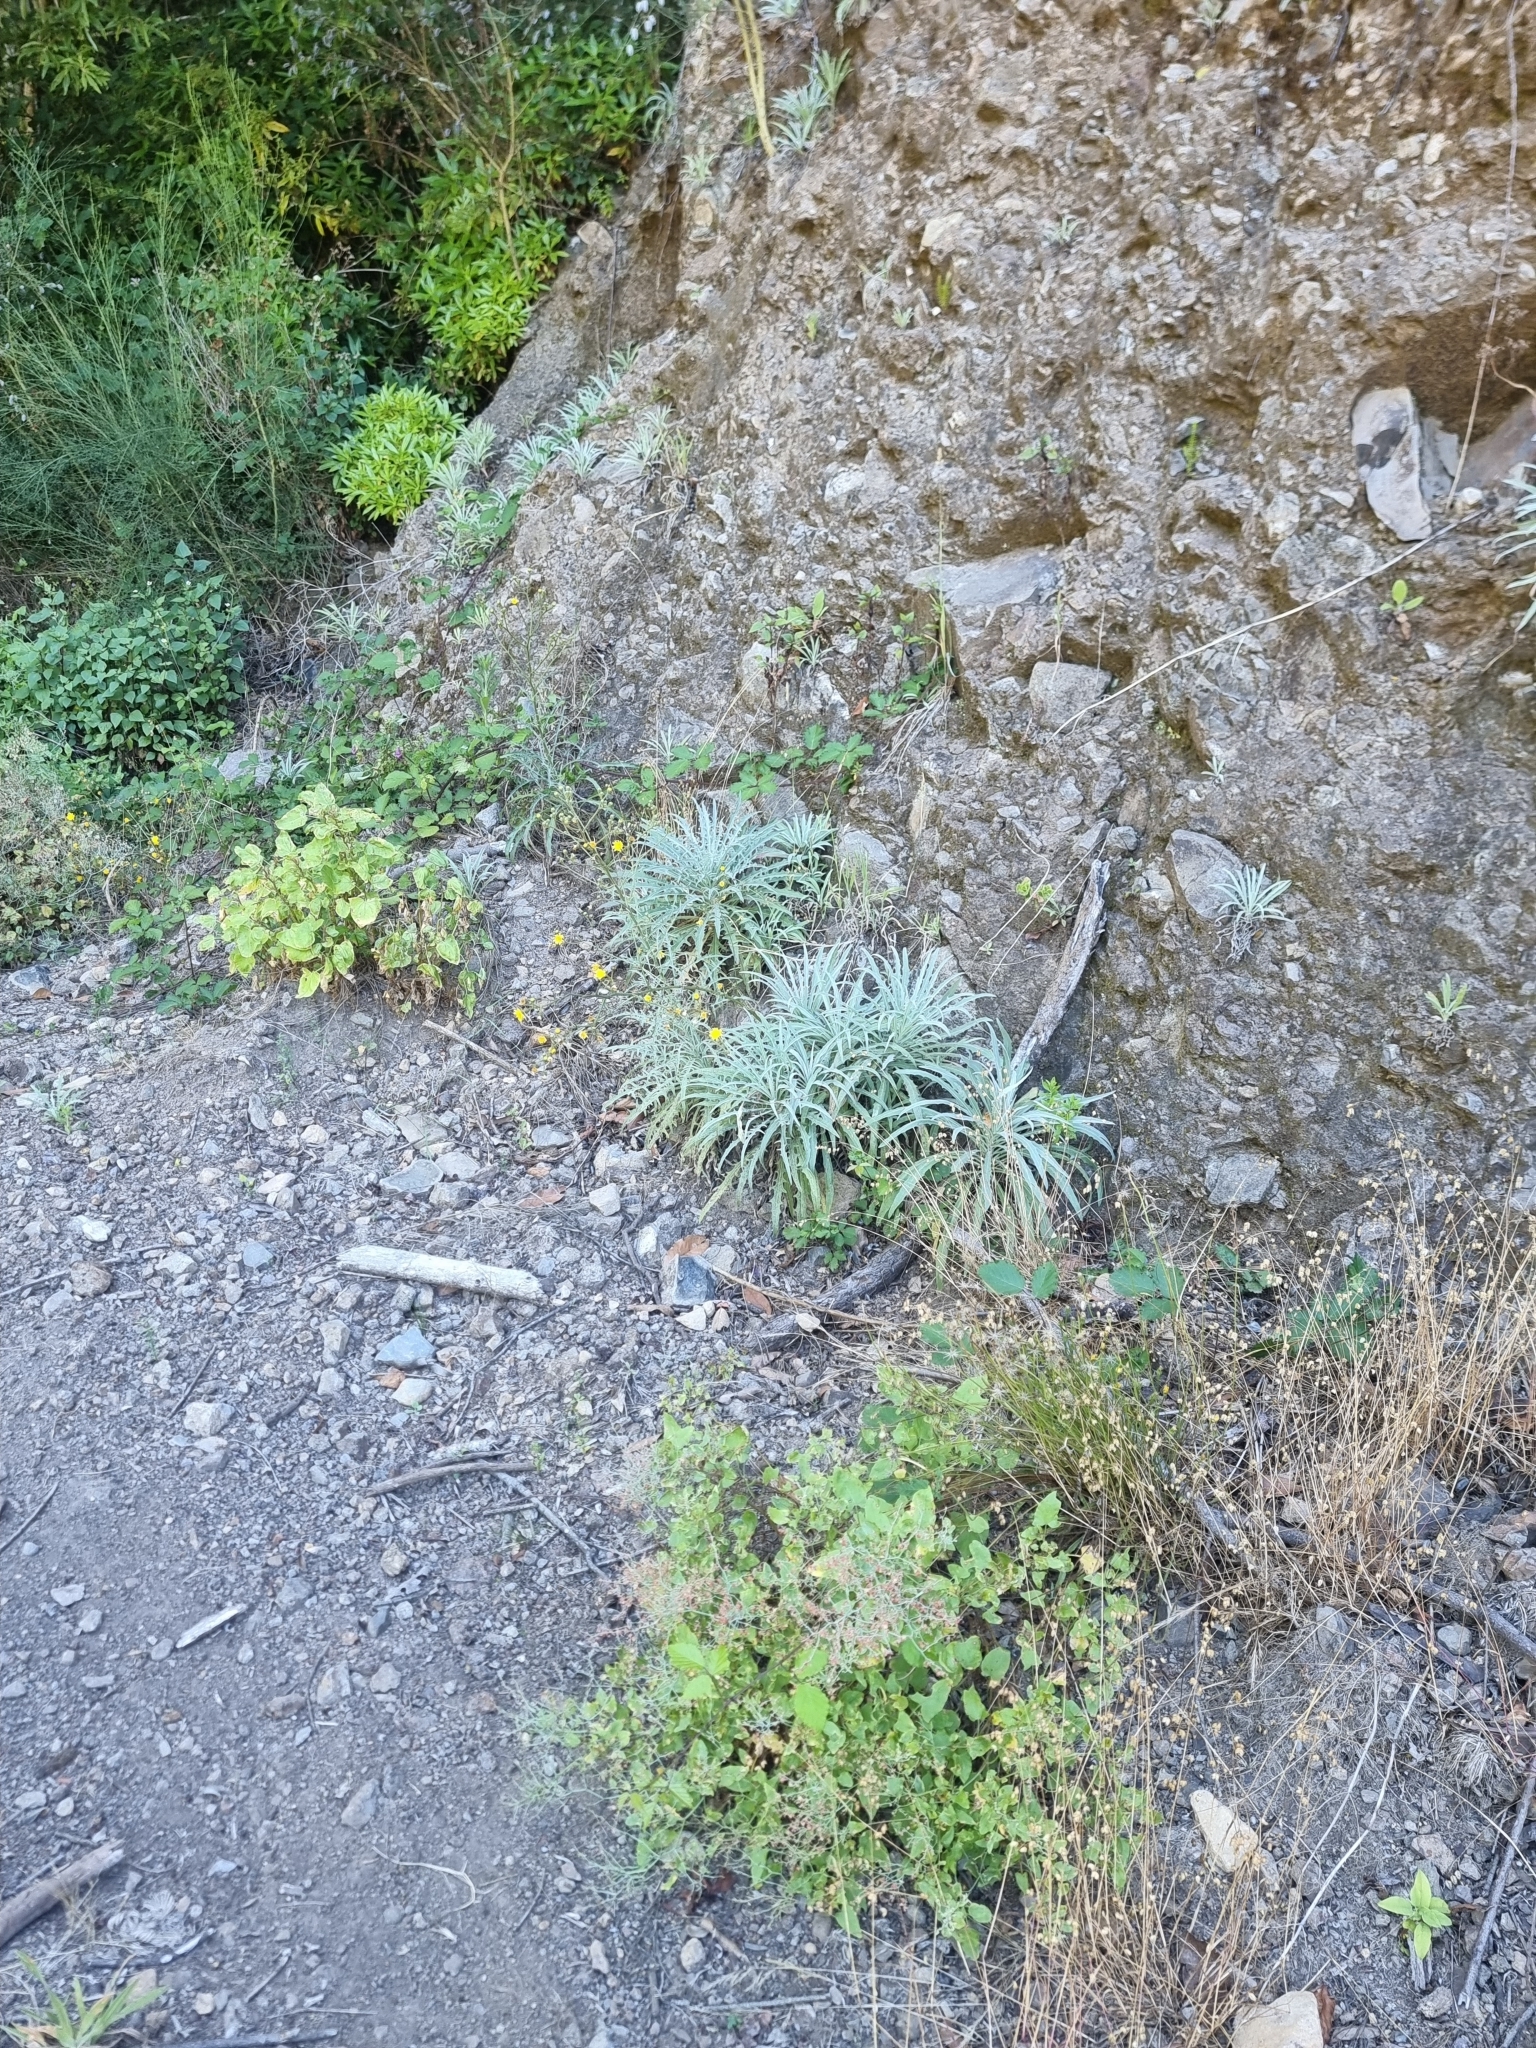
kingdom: Plantae
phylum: Tracheophyta
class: Magnoliopsida
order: Asterales
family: Asteraceae
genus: Andryala
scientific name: Andryala glandulosa
